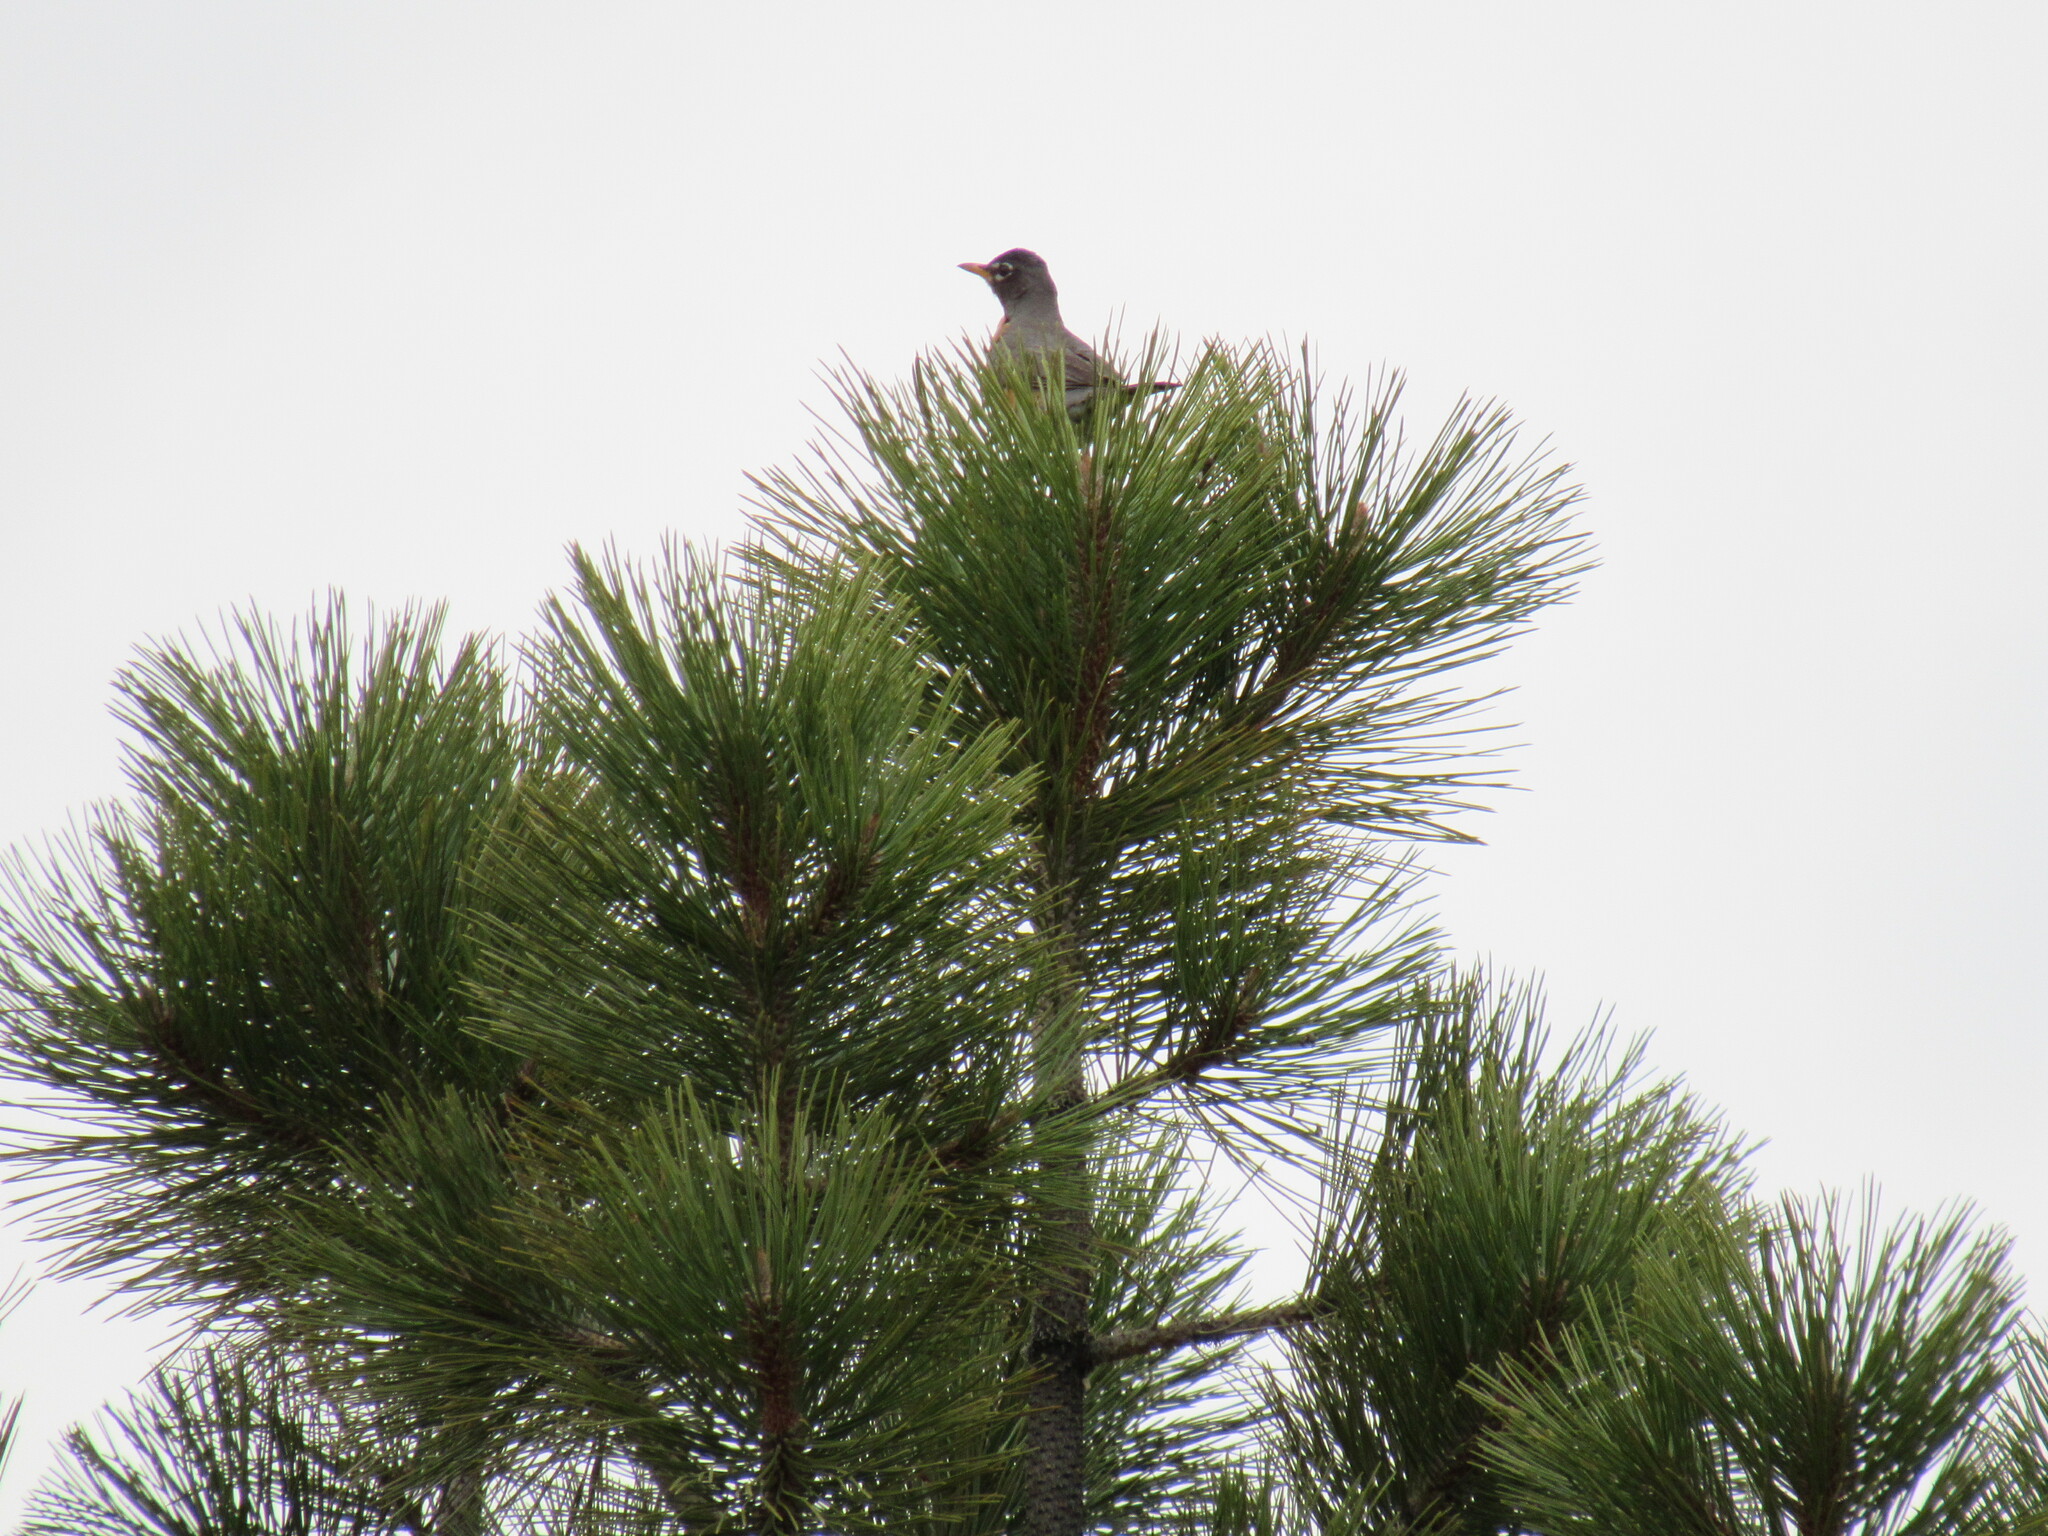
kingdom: Animalia
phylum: Chordata
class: Aves
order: Passeriformes
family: Turdidae
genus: Turdus
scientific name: Turdus migratorius
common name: American robin
